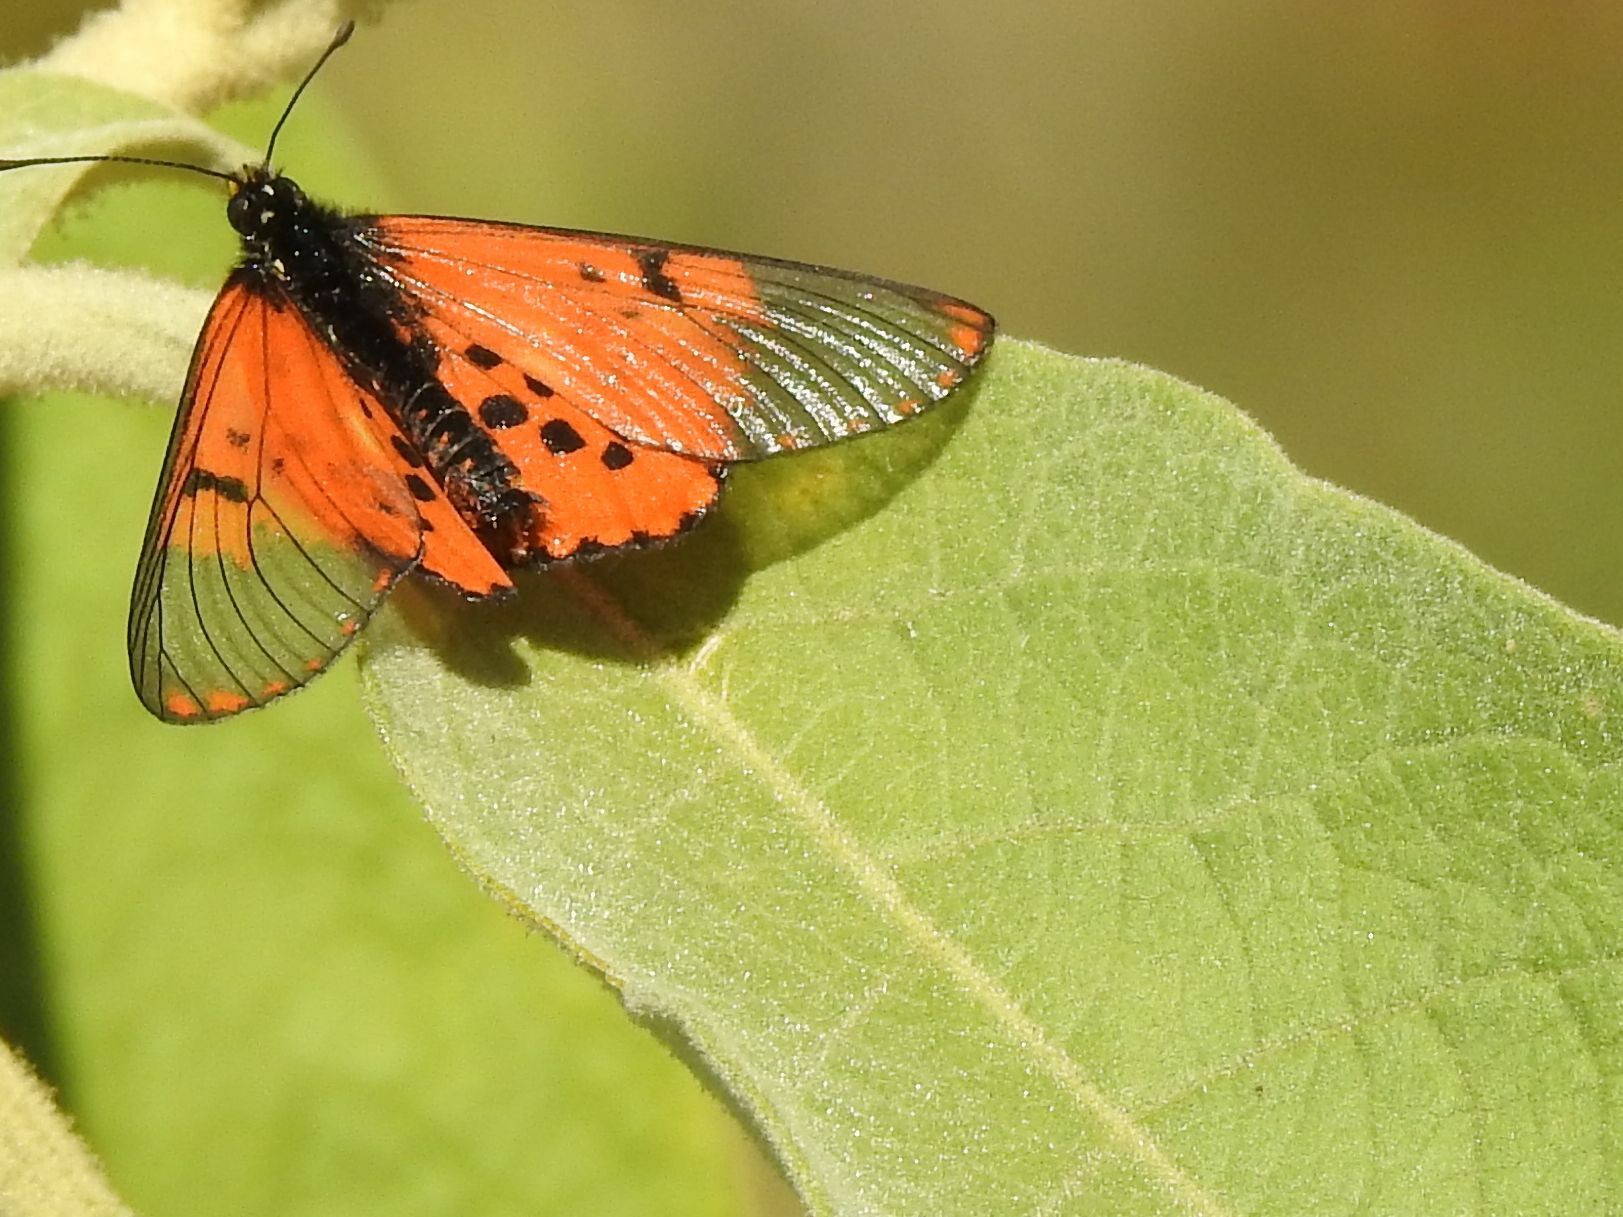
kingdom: Animalia
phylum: Arthropoda
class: Insecta
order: Lepidoptera
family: Nymphalidae
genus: Acraea
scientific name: Acraea horta
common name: Garden acraea
